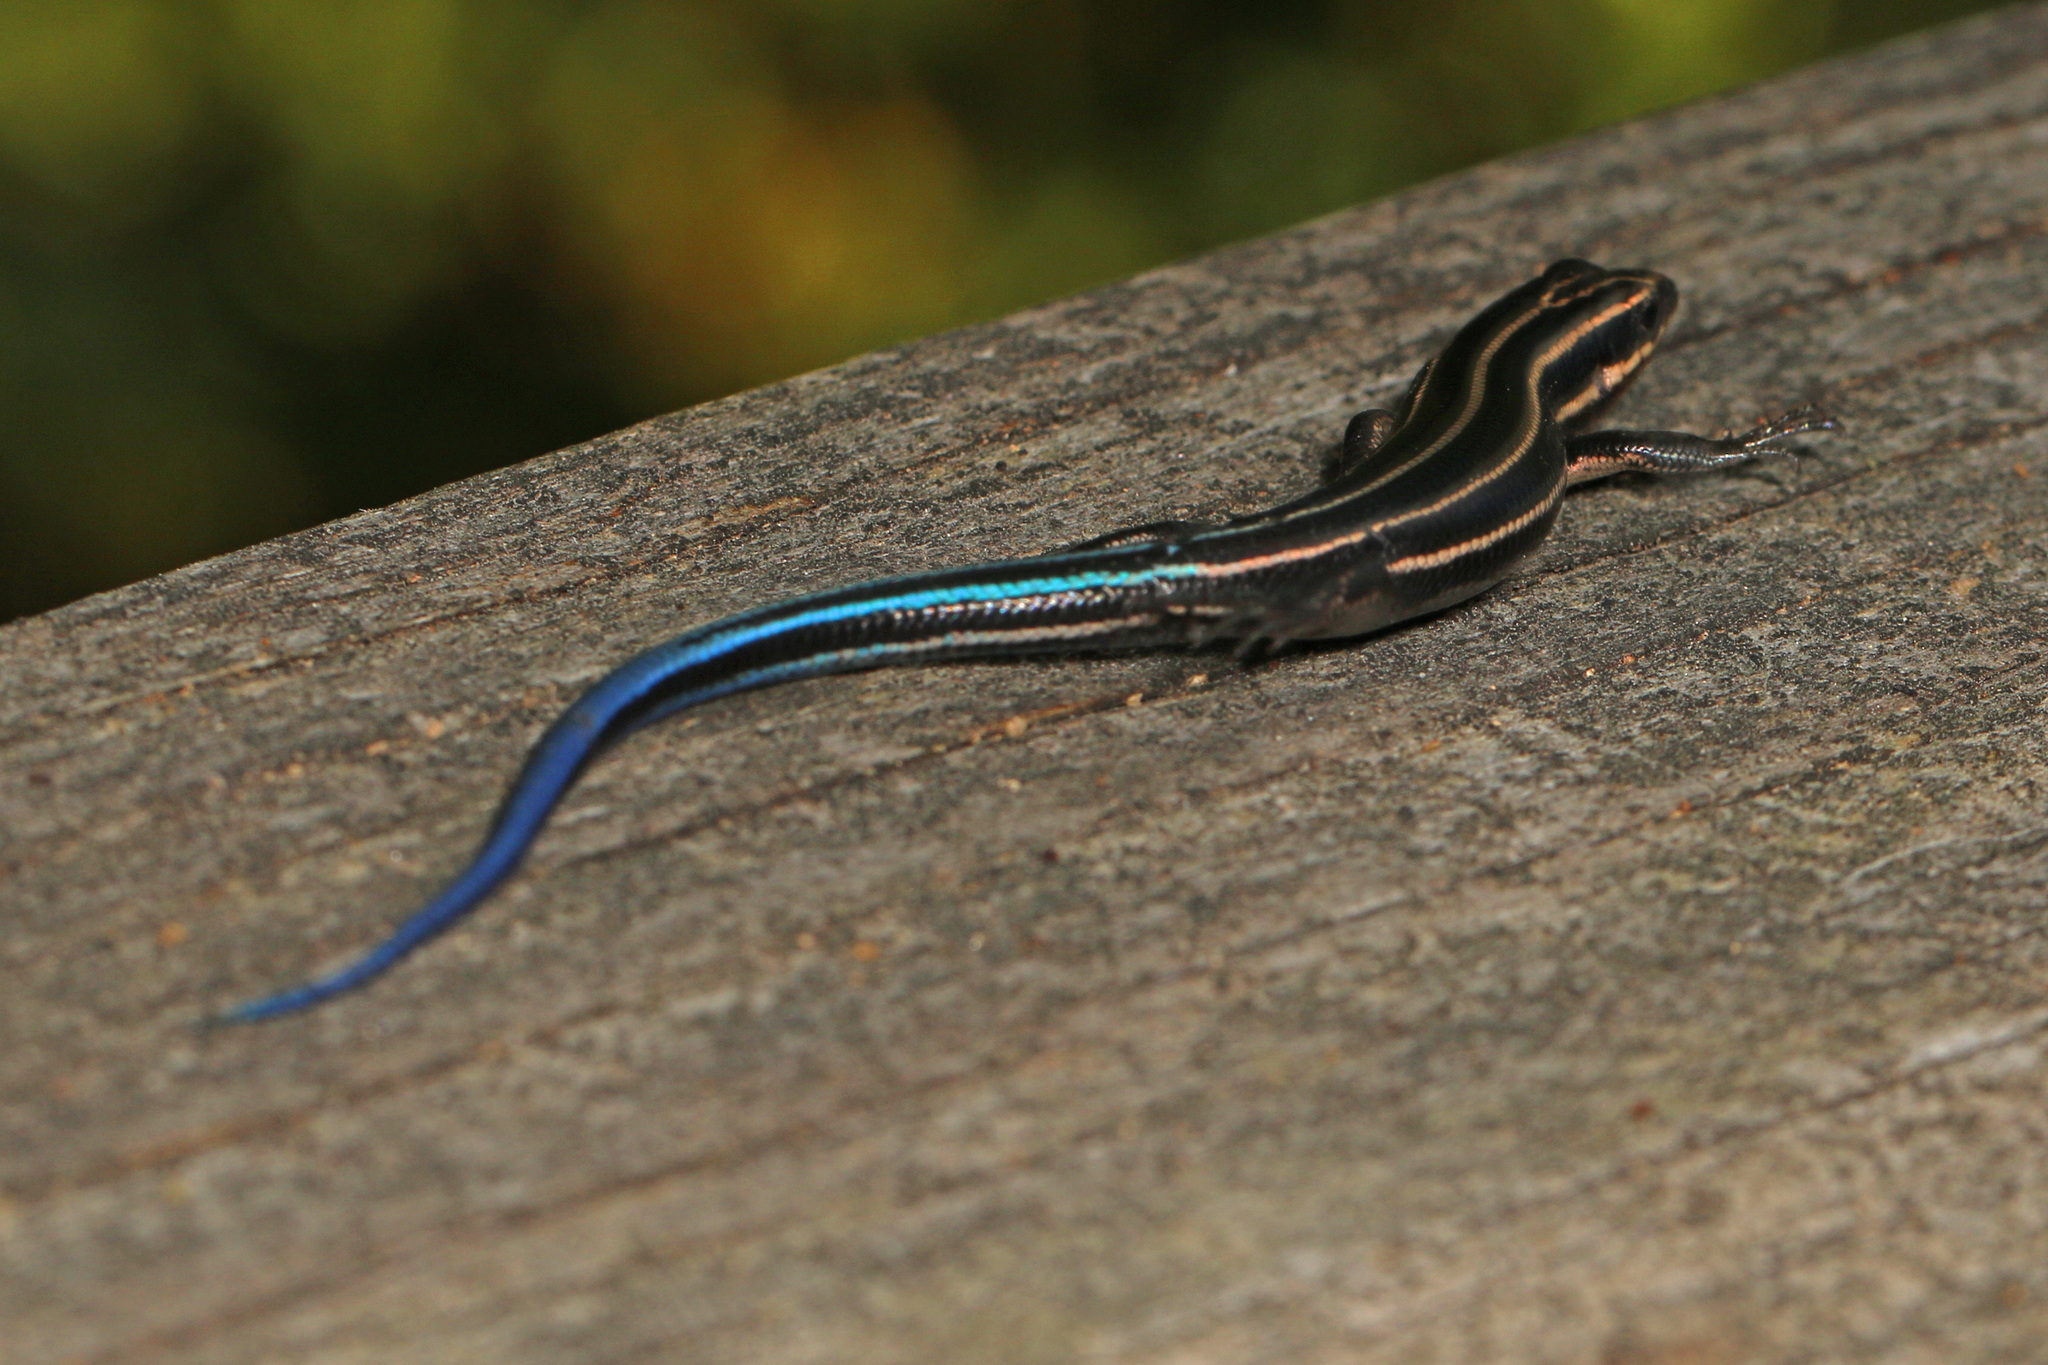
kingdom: Animalia
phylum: Chordata
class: Squamata
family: Scincidae
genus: Plestiodon
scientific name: Plestiodon fasciatus
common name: Five-lined skink
